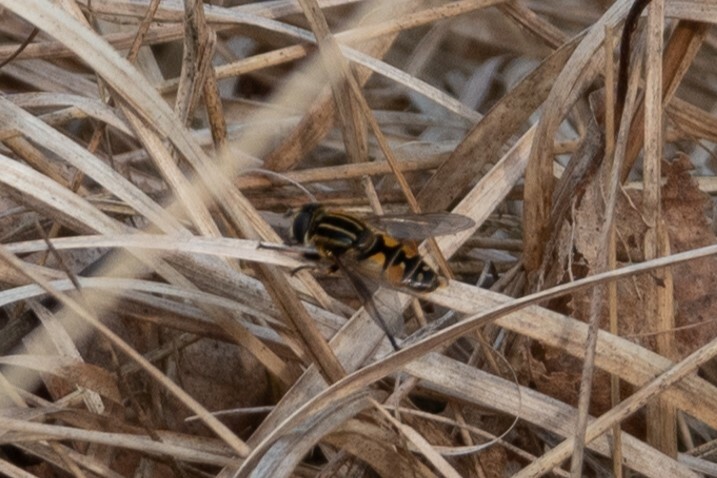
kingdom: Animalia
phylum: Arthropoda
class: Insecta
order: Diptera
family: Syrphidae
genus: Helophilus
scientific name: Helophilus pendulus
